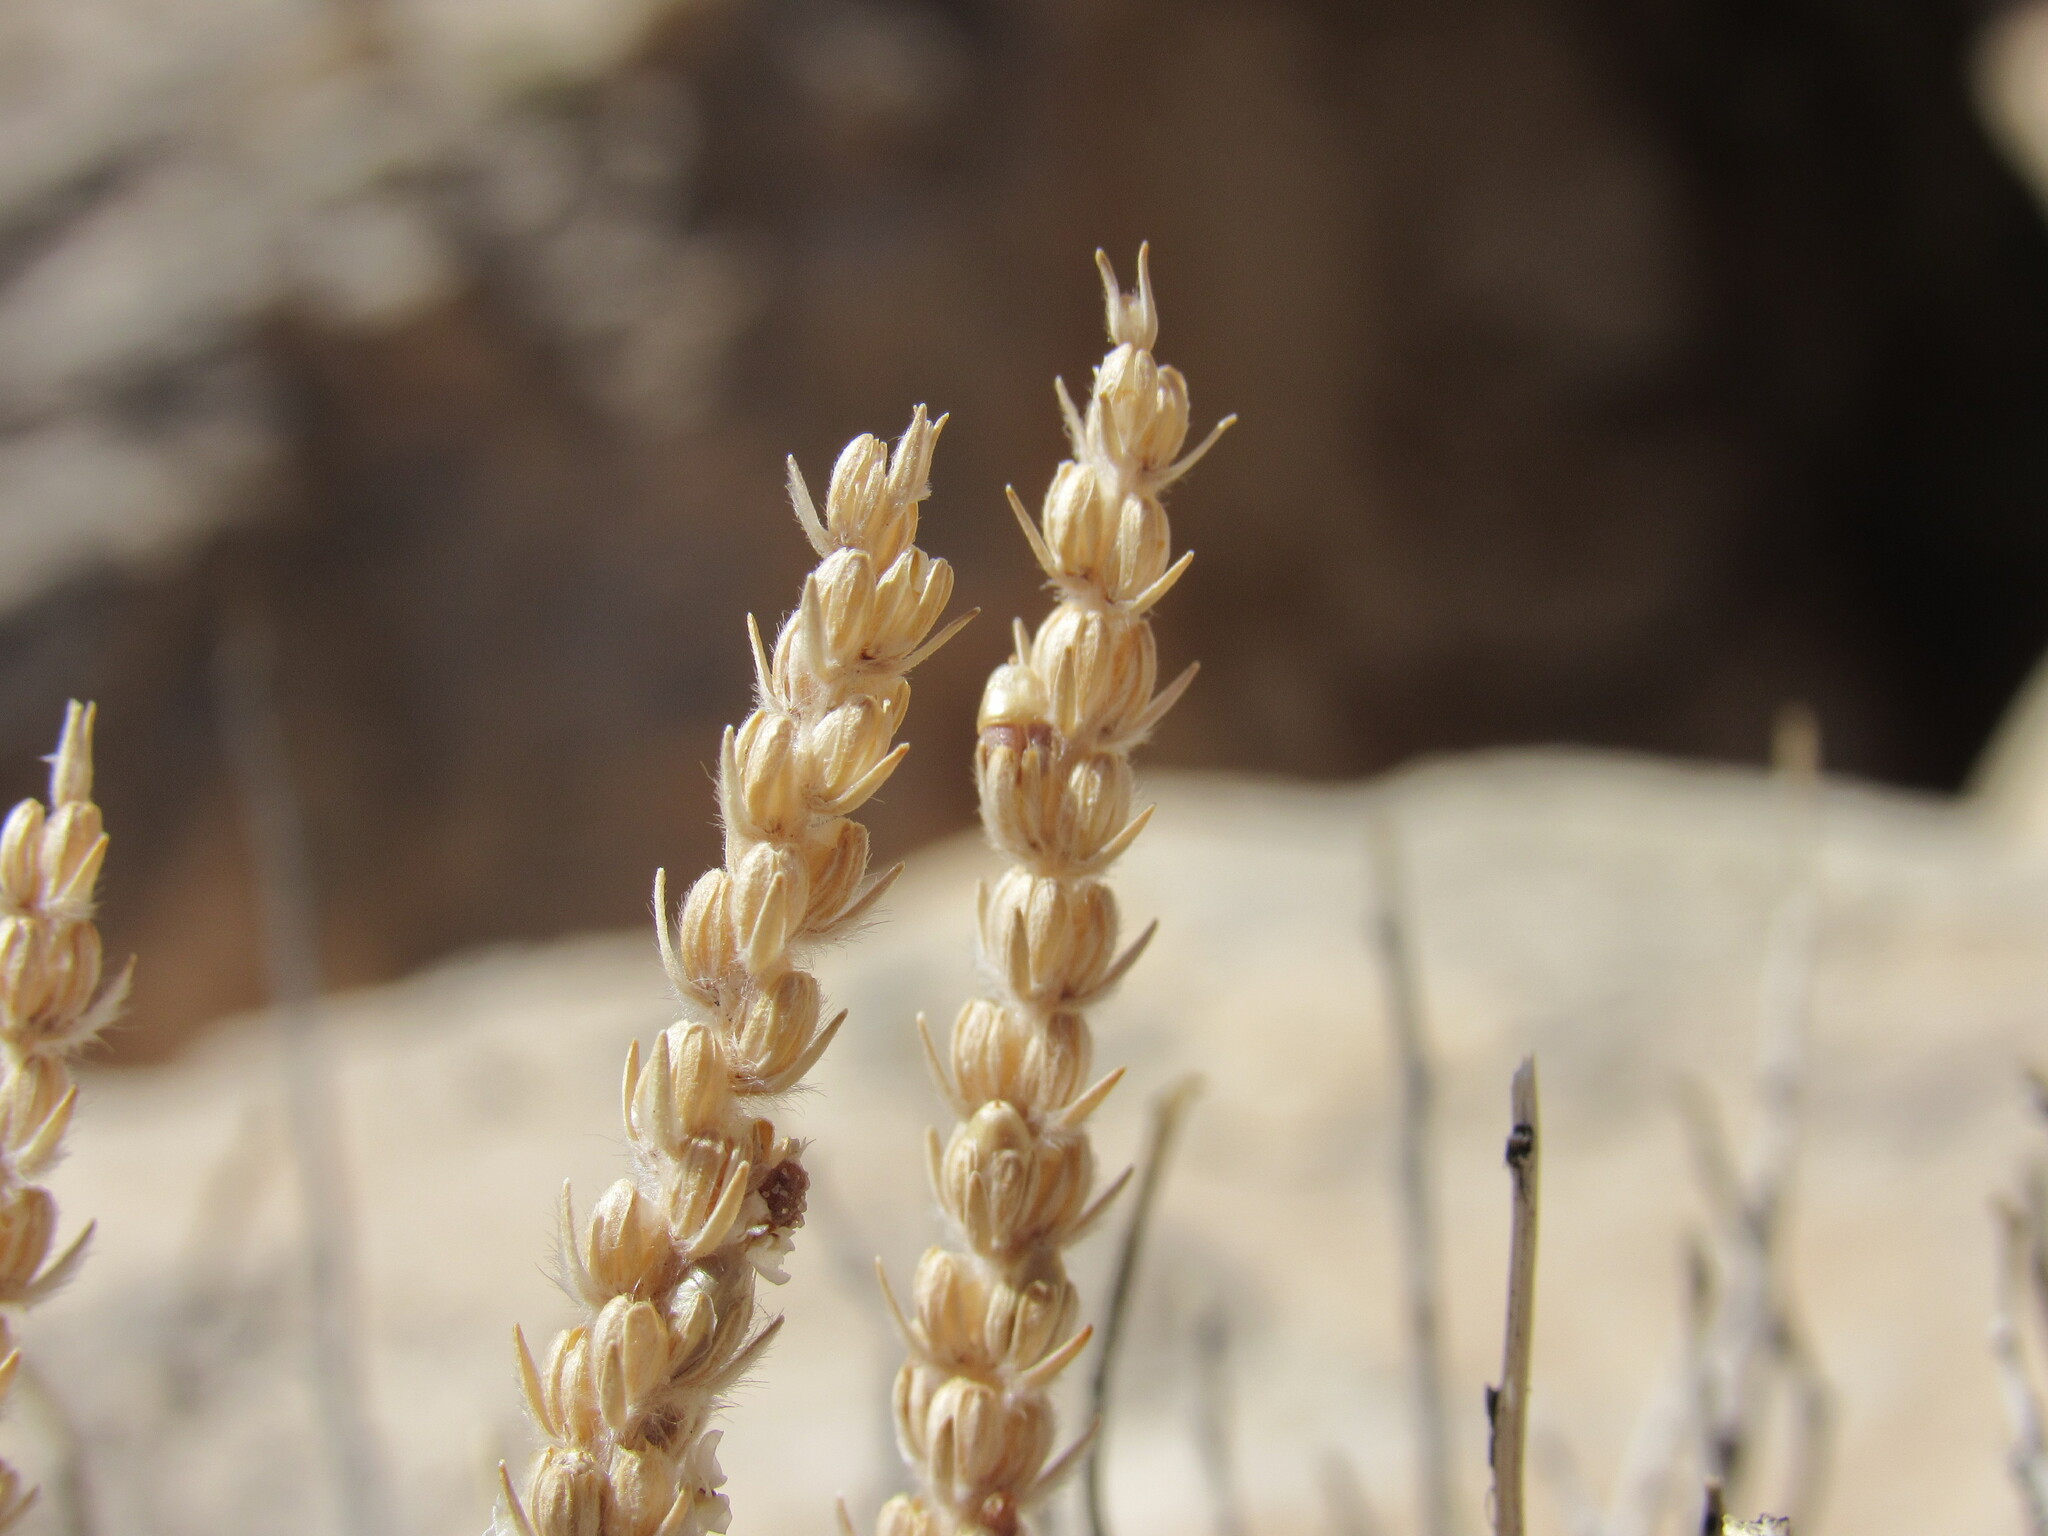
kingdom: Plantae
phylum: Tracheophyta
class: Magnoliopsida
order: Lamiales
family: Plantaginaceae
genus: Plantago
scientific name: Plantago patagonica
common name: Patagonia indian-wheat
